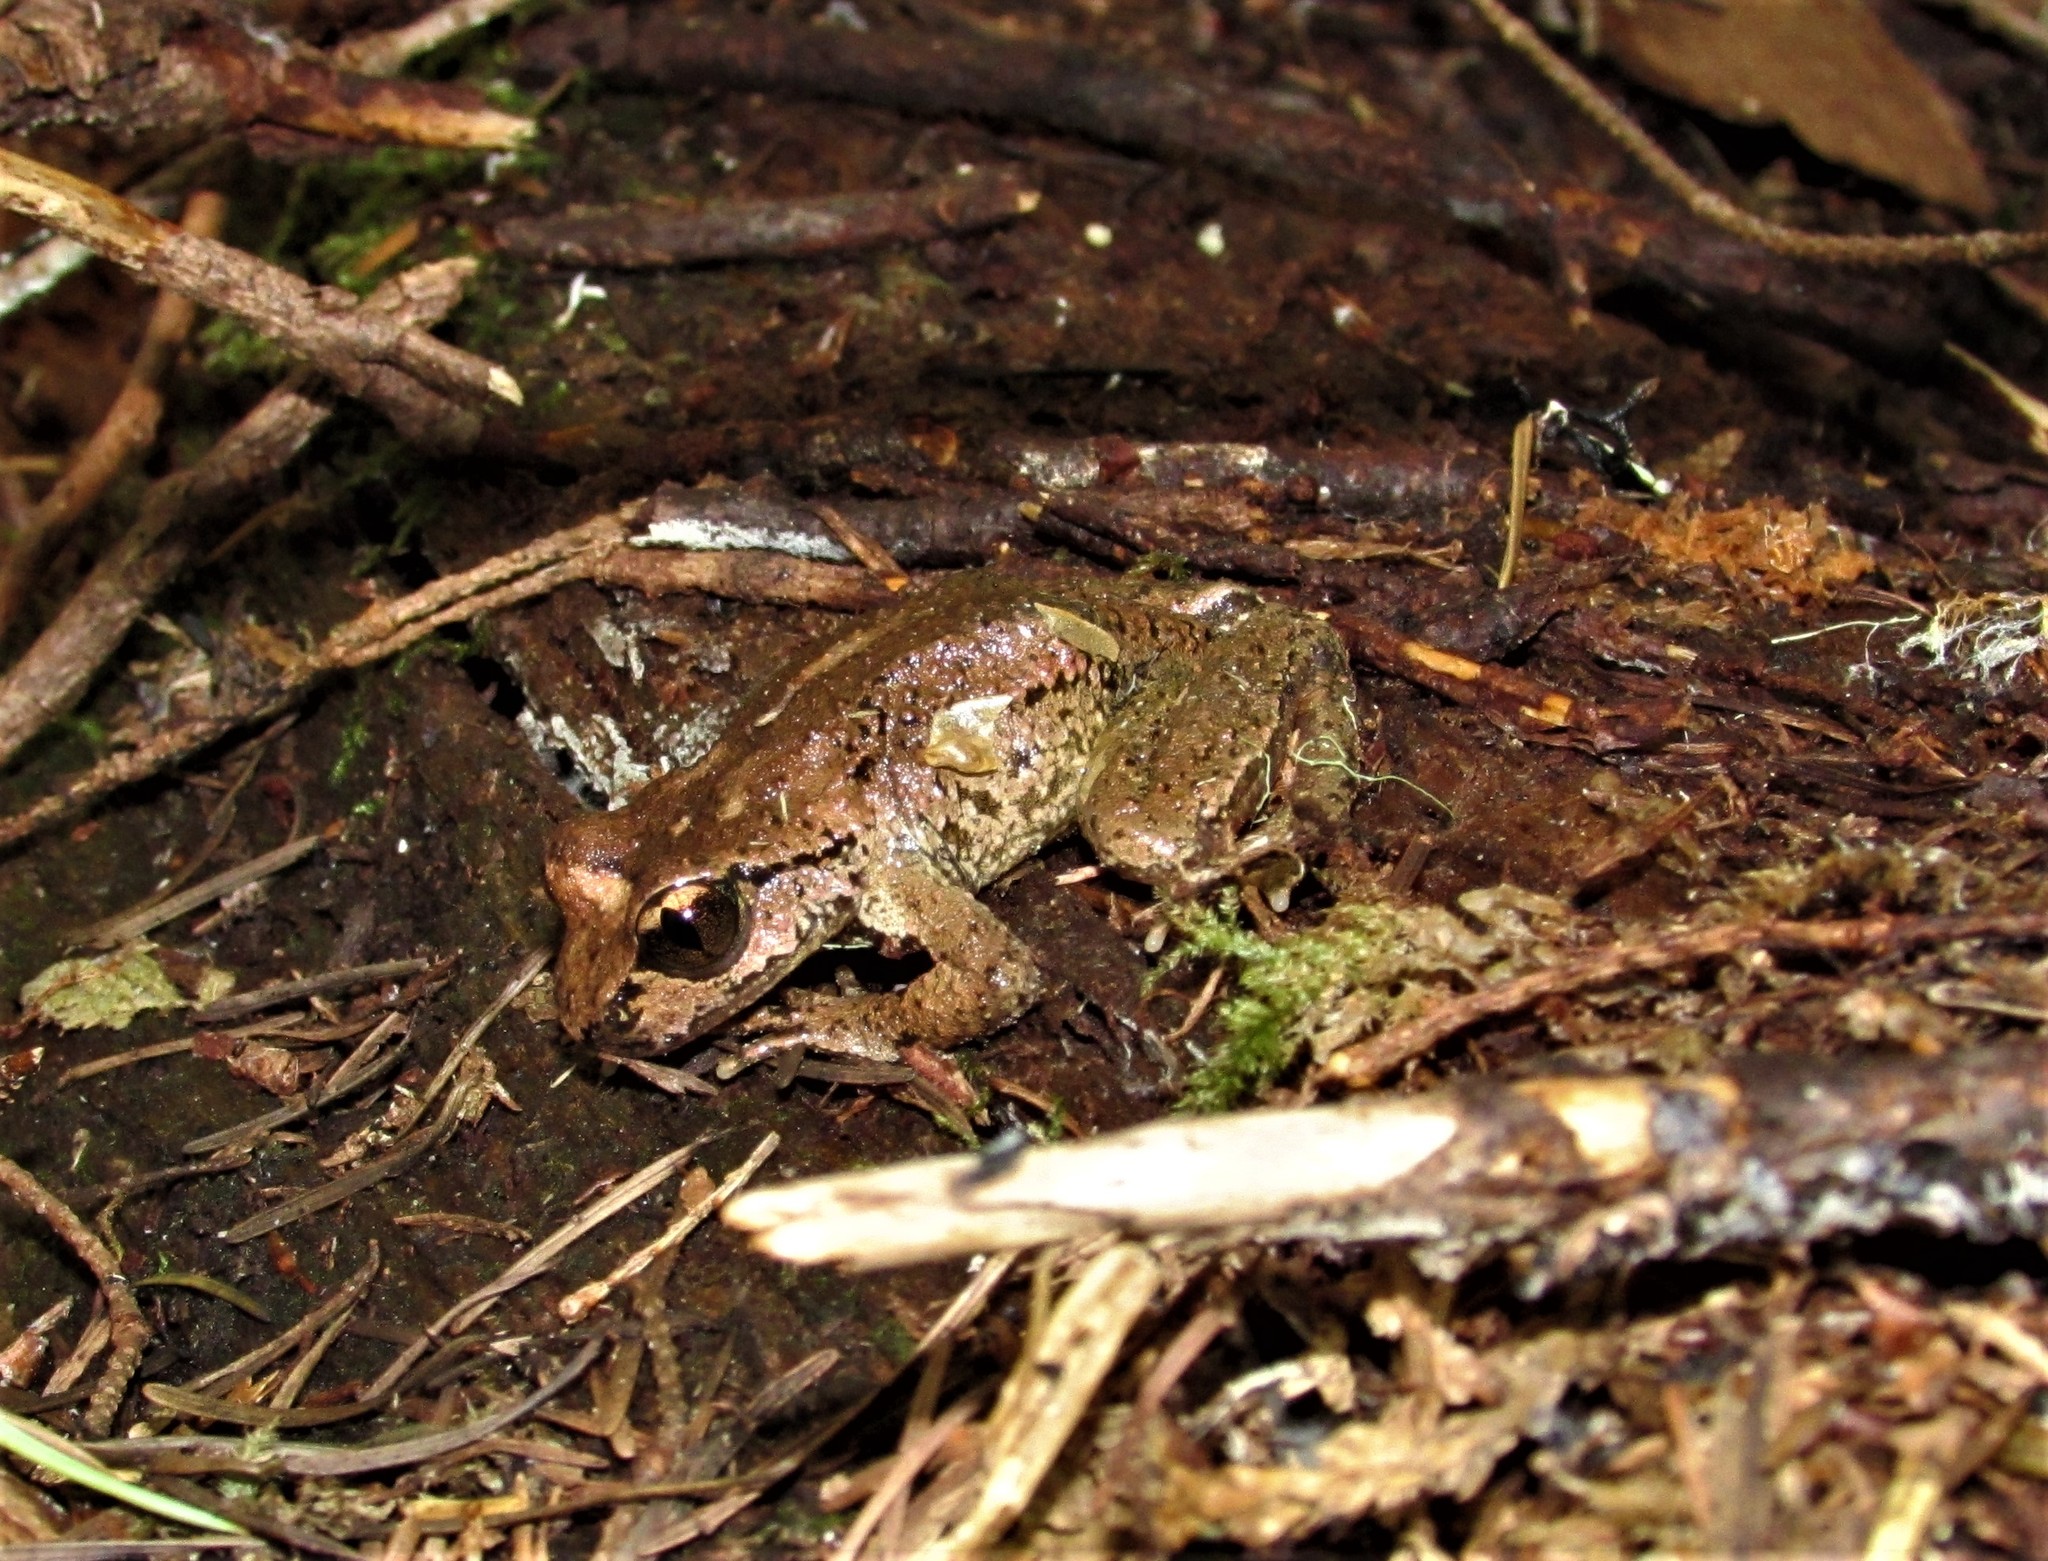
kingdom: Animalia
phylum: Chordata
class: Amphibia
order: Anura
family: Ascaphidae
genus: Ascaphus
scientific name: Ascaphus truei
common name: Tailed frog
